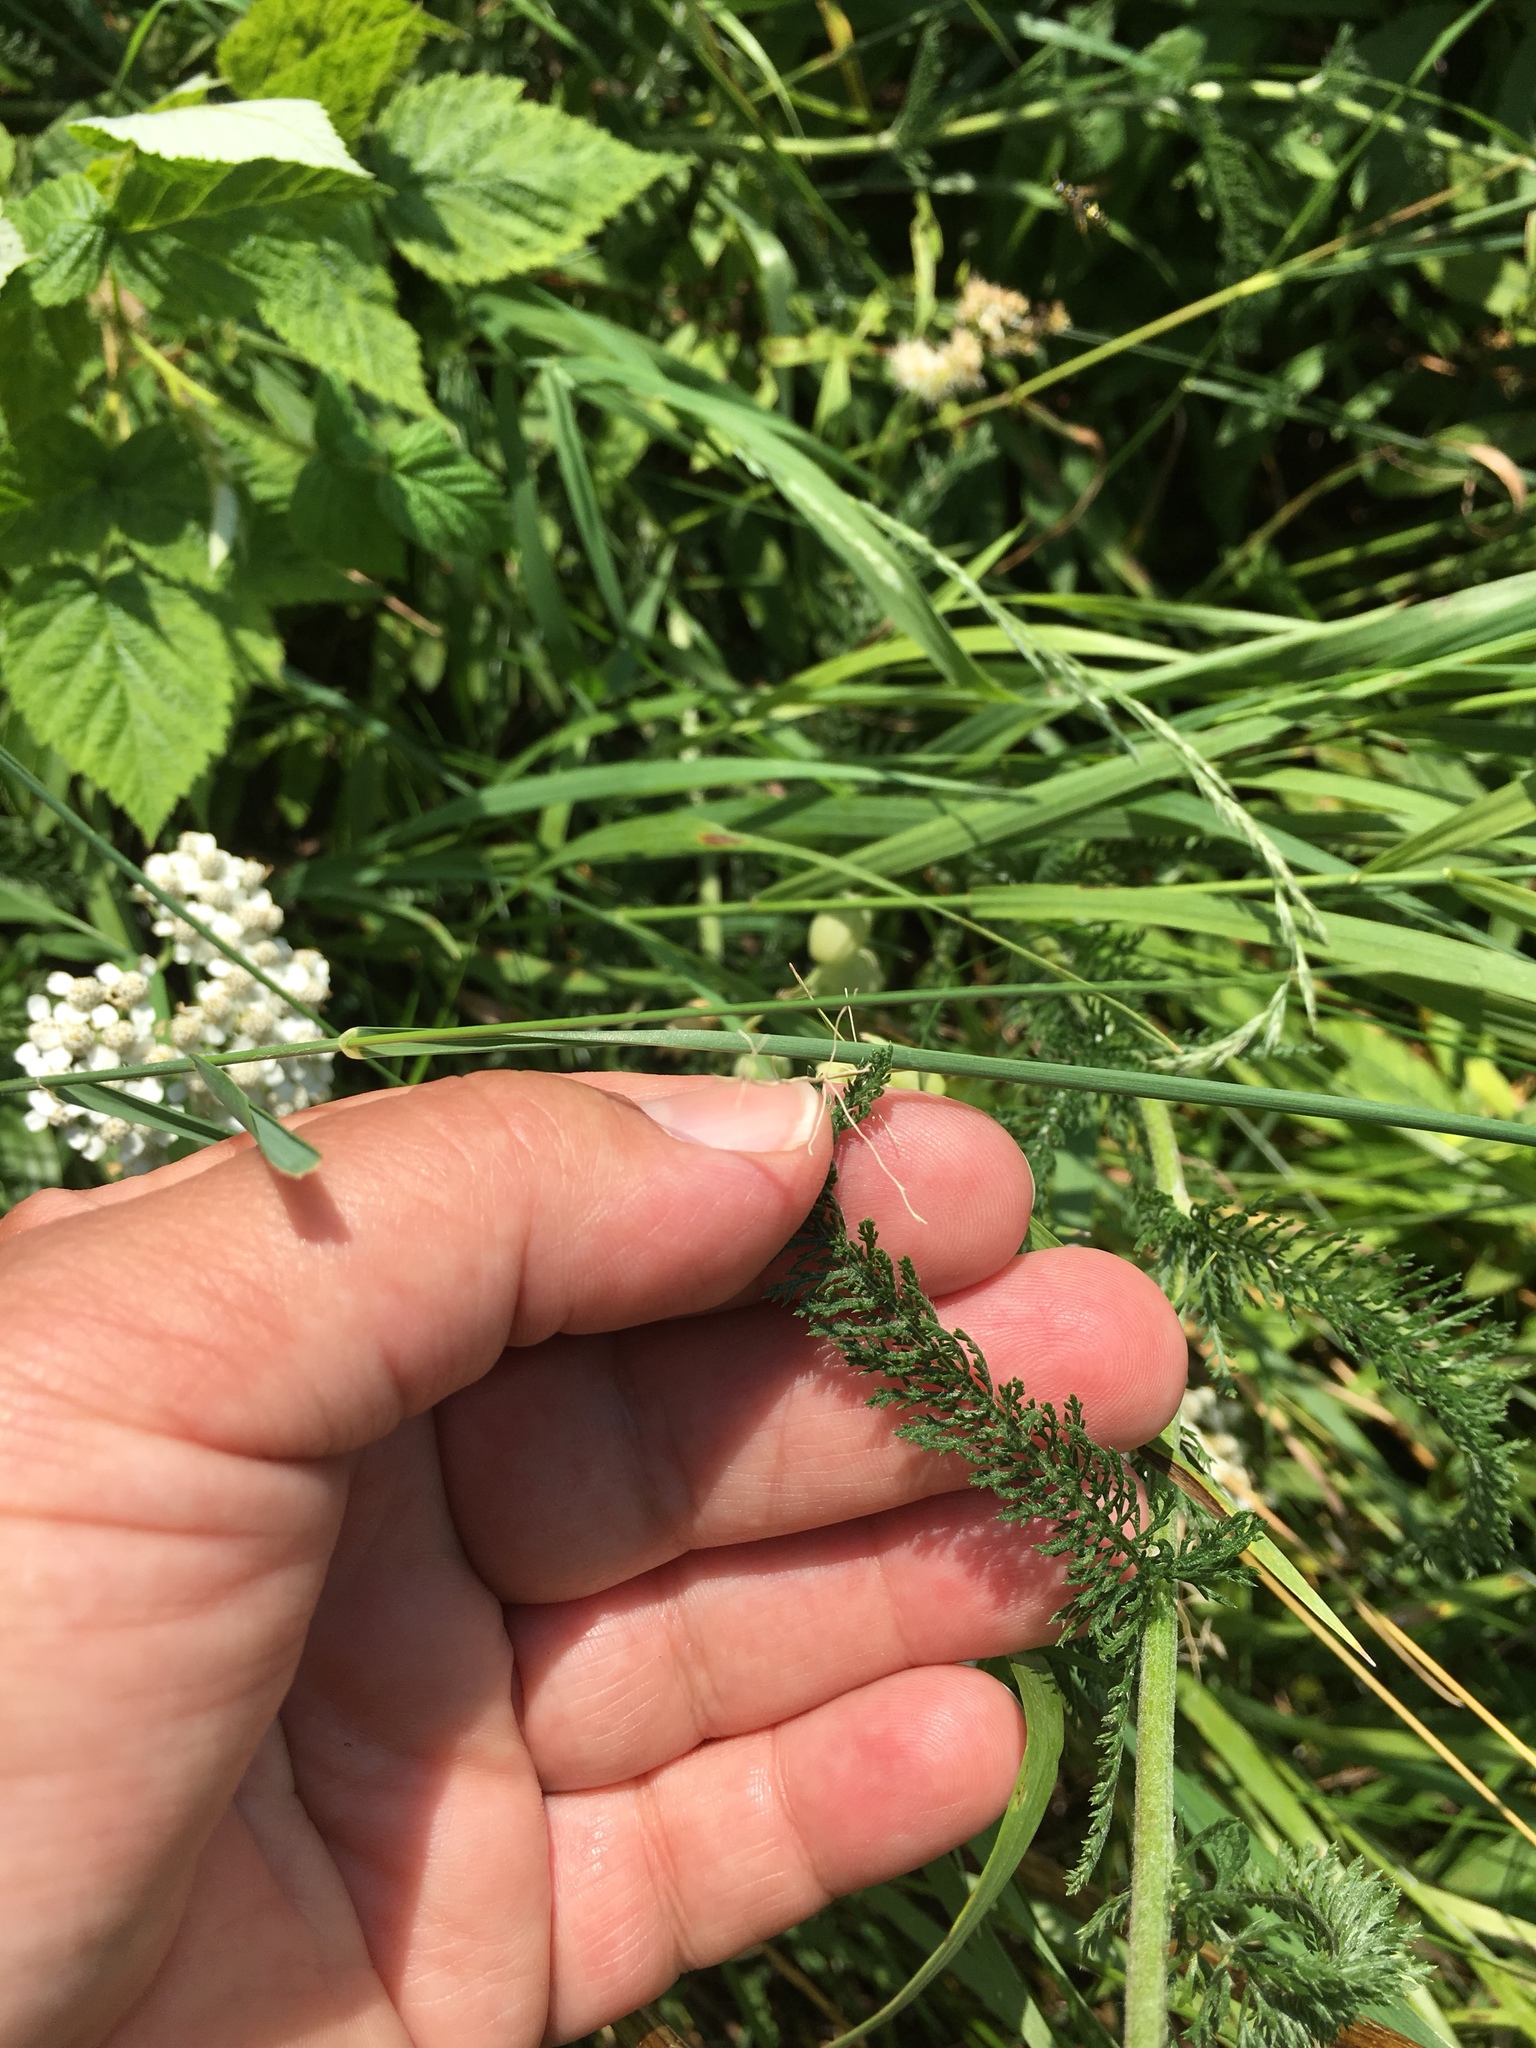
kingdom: Plantae
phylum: Tracheophyta
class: Magnoliopsida
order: Asterales
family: Asteraceae
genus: Achillea
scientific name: Achillea millefolium
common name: Yarrow
